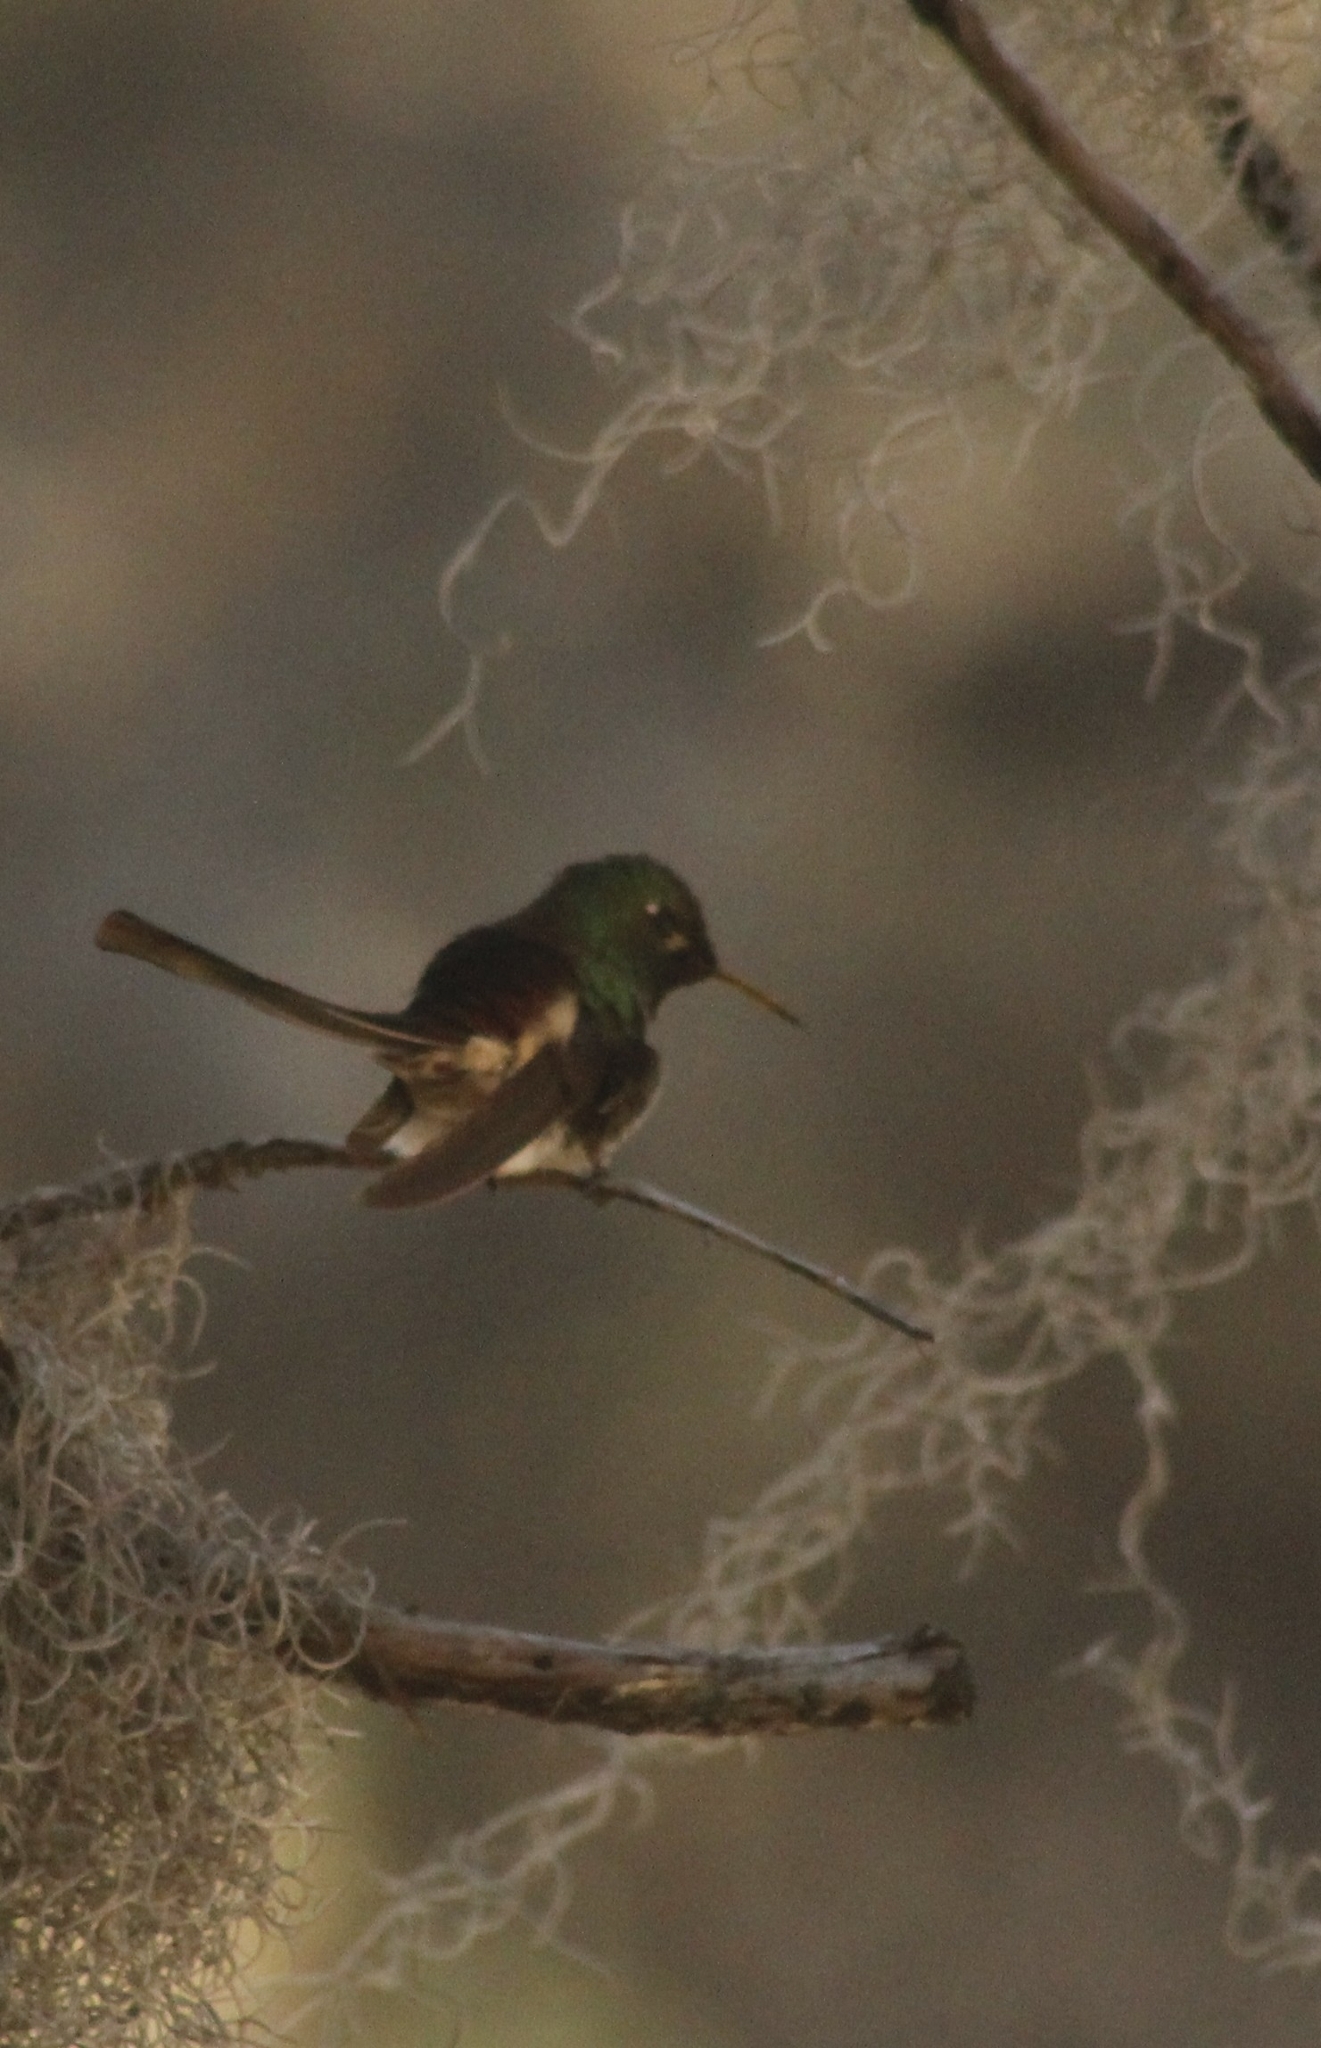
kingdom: Animalia
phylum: Chordata
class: Aves
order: Apodiformes
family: Trochilidae
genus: Sappho
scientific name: Sappho sparganurus
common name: Red-tailed comet
